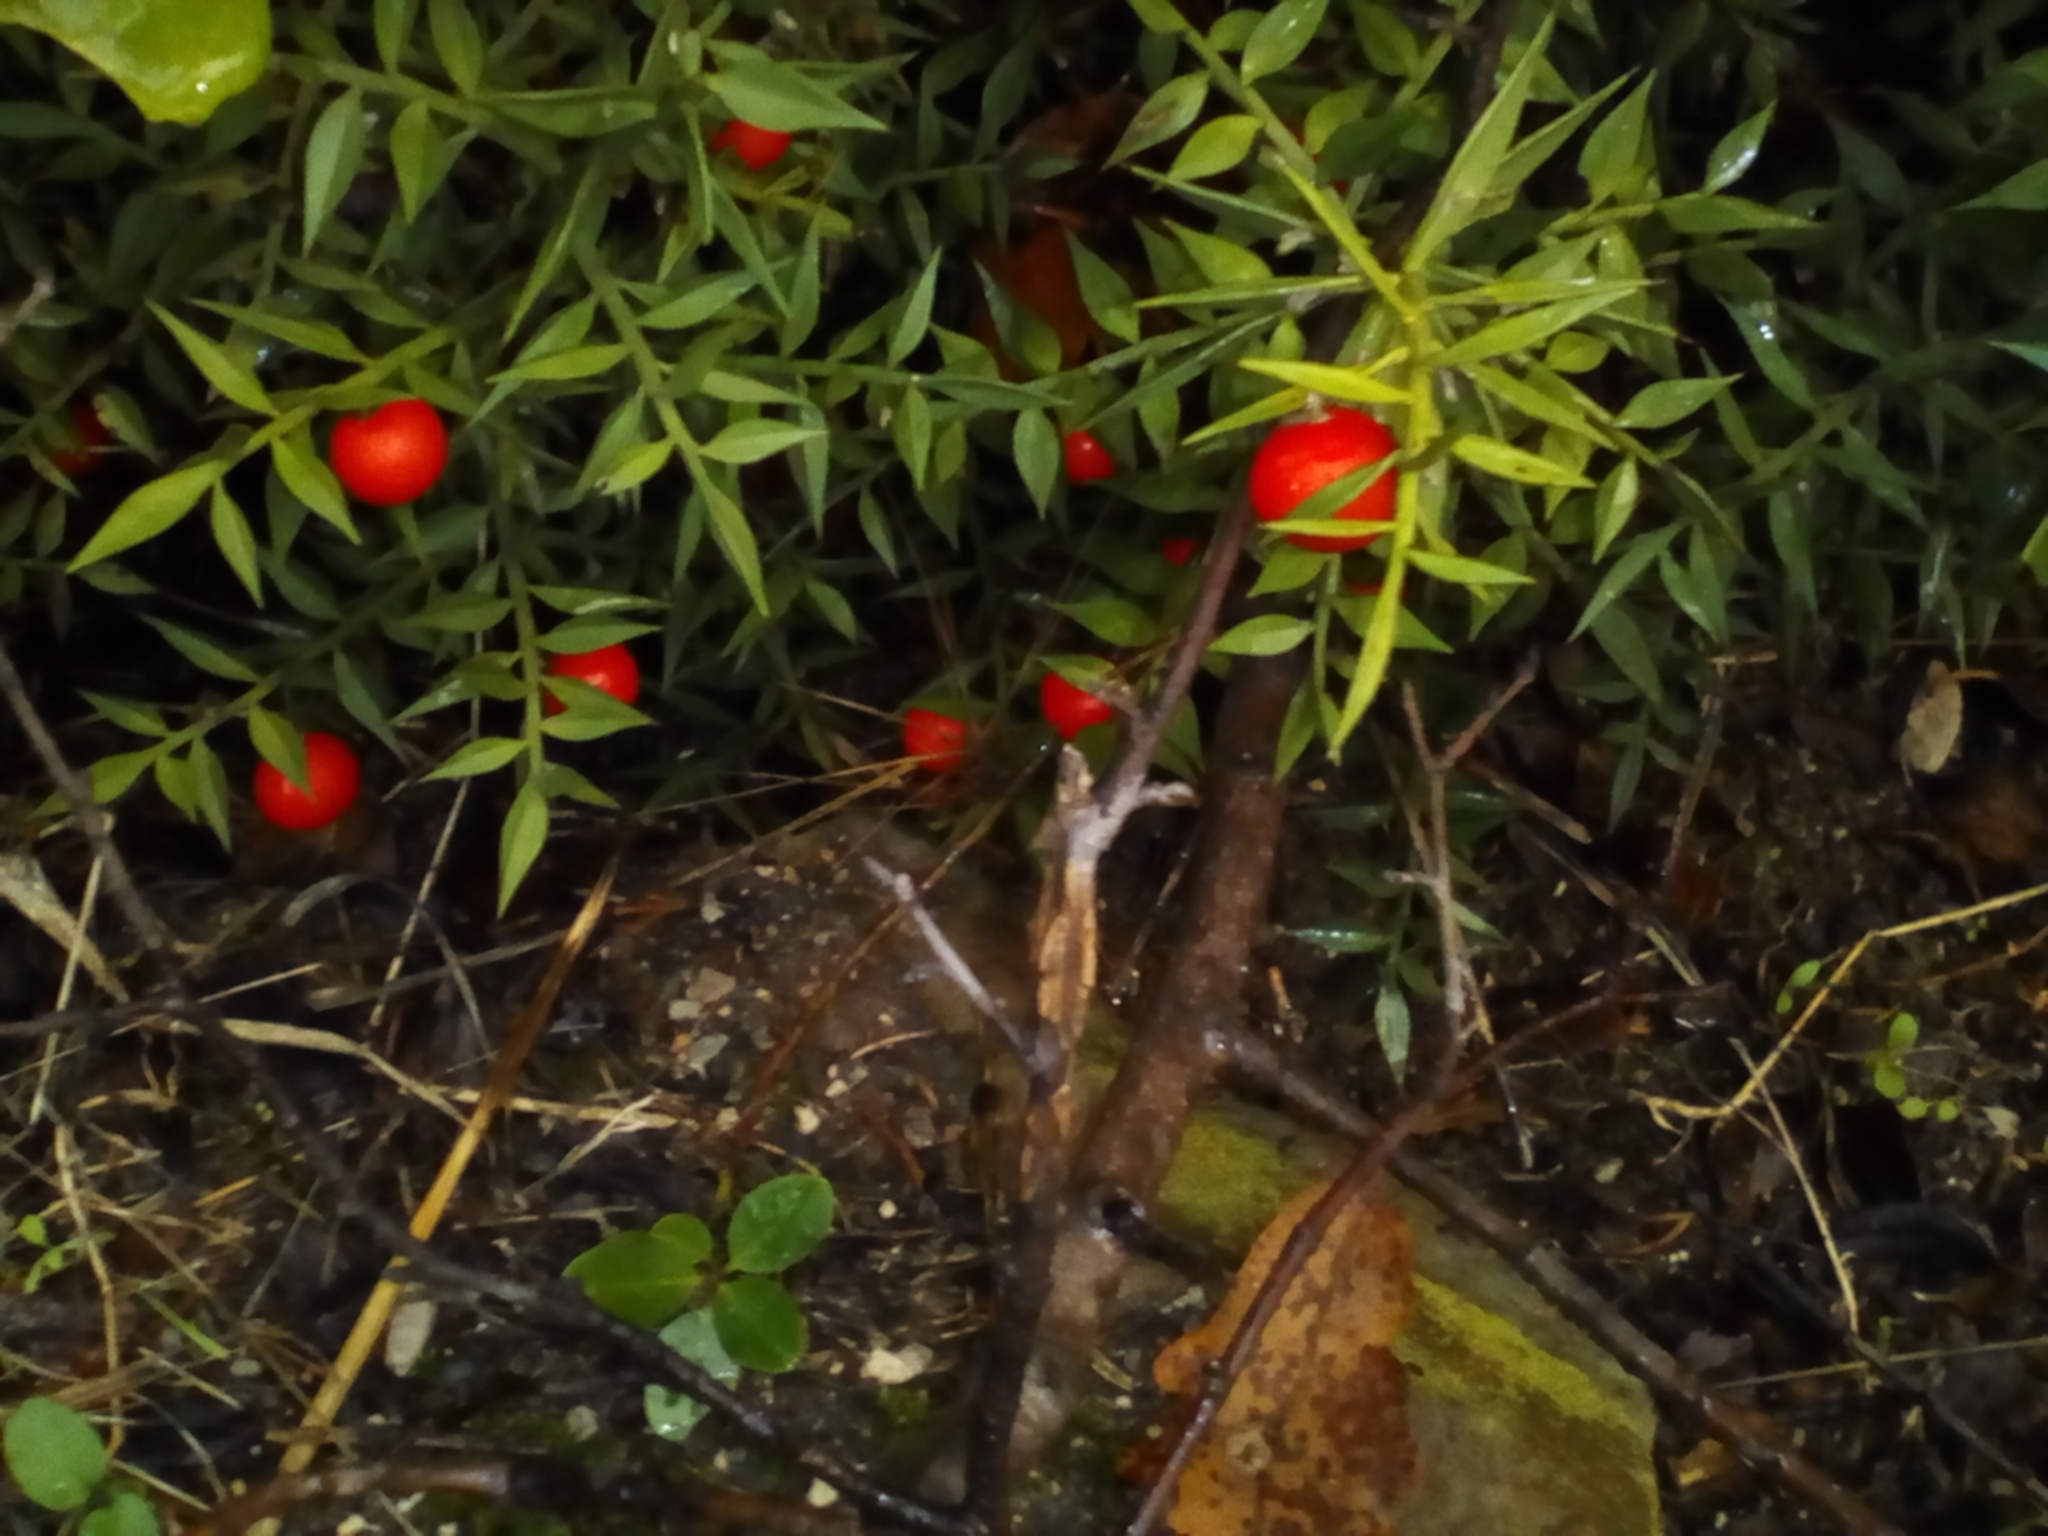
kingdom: Plantae
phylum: Tracheophyta
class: Liliopsida
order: Asparagales
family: Asparagaceae
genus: Ruscus
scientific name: Ruscus aculeatus
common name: Butcher's-broom
